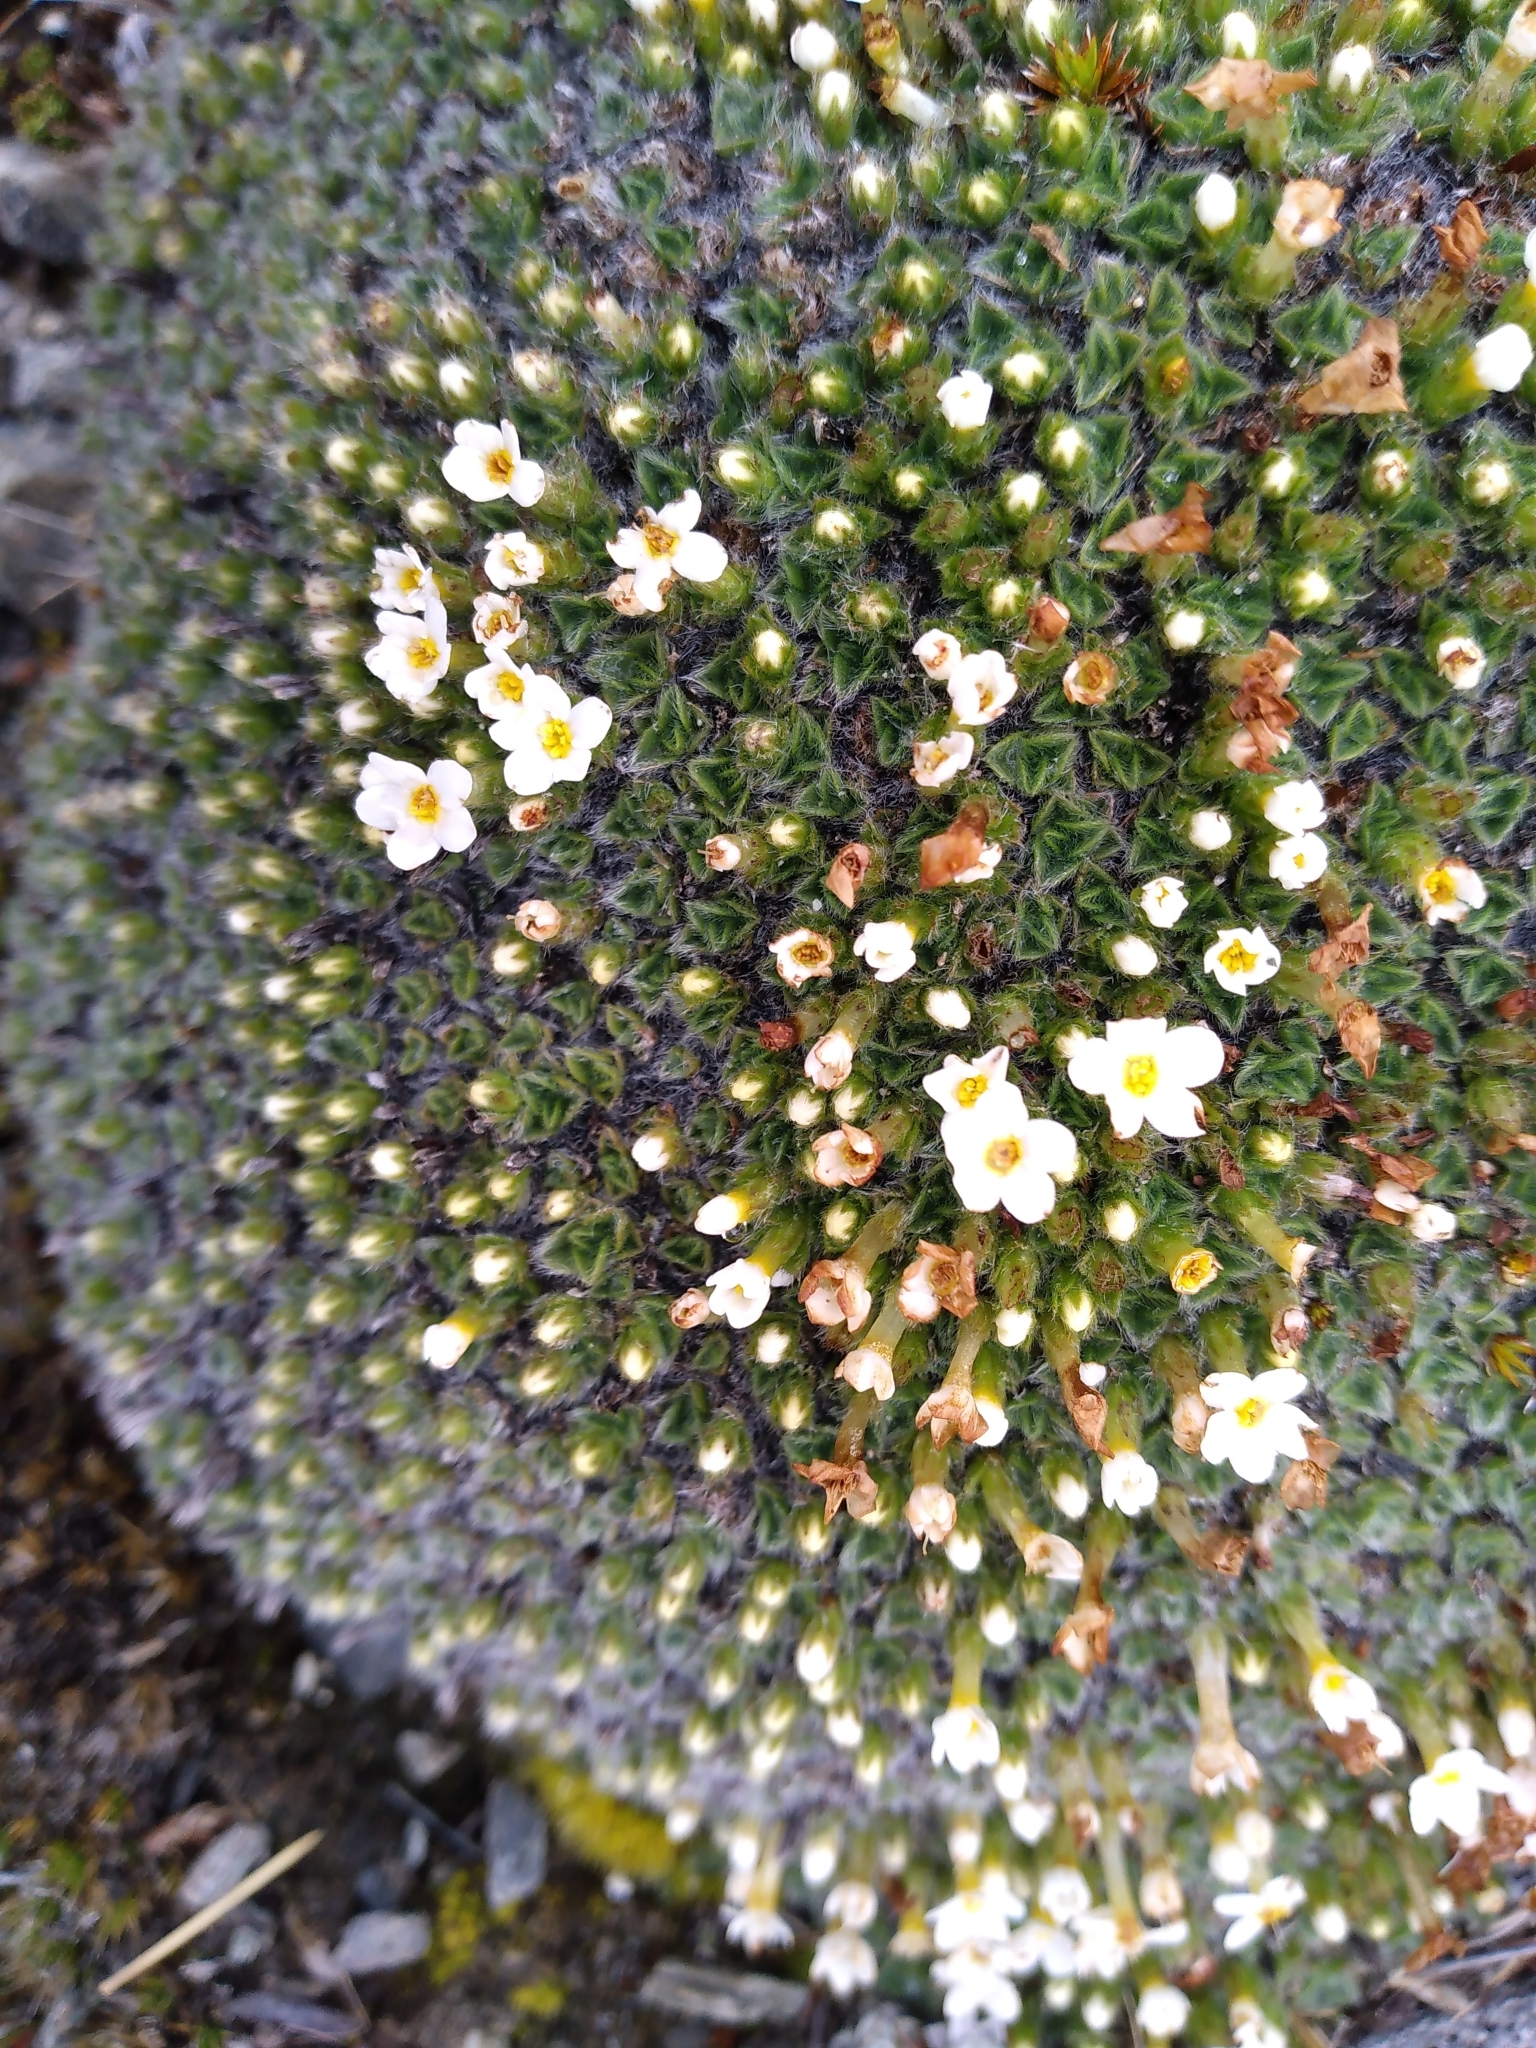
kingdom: Plantae
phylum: Tracheophyta
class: Magnoliopsida
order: Boraginales
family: Boraginaceae
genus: Myosotis
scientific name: Myosotis pulvinaris
